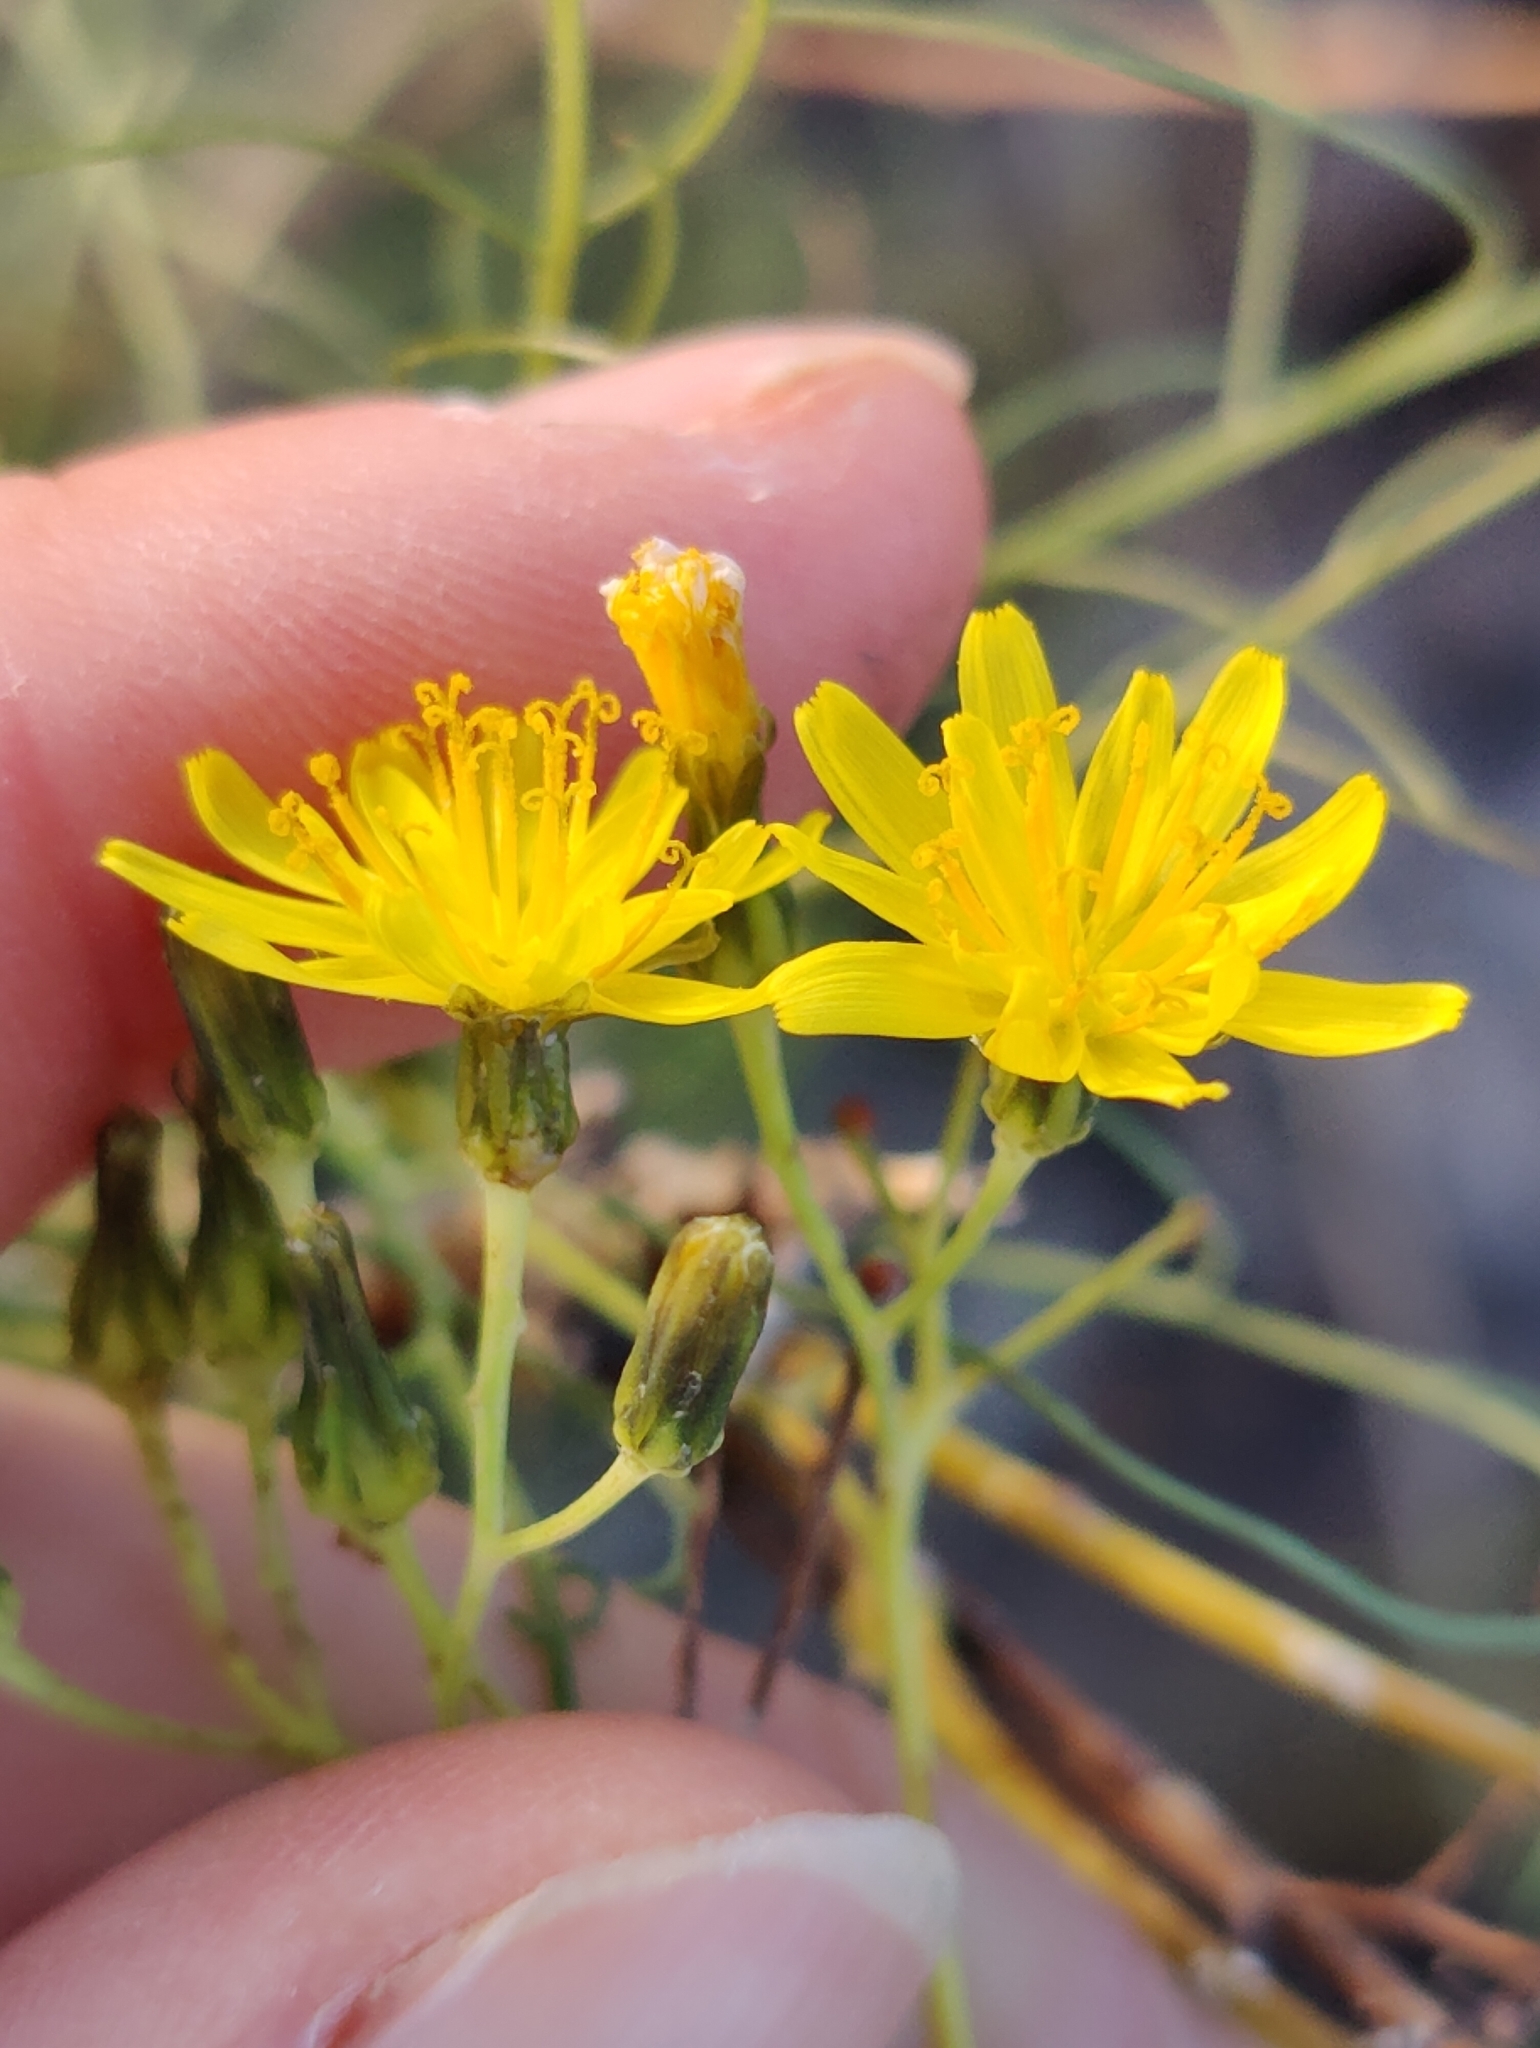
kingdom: Plantae
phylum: Tracheophyta
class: Magnoliopsida
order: Asterales
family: Asteraceae
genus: Sonchus
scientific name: Sonchus leptocephalus
